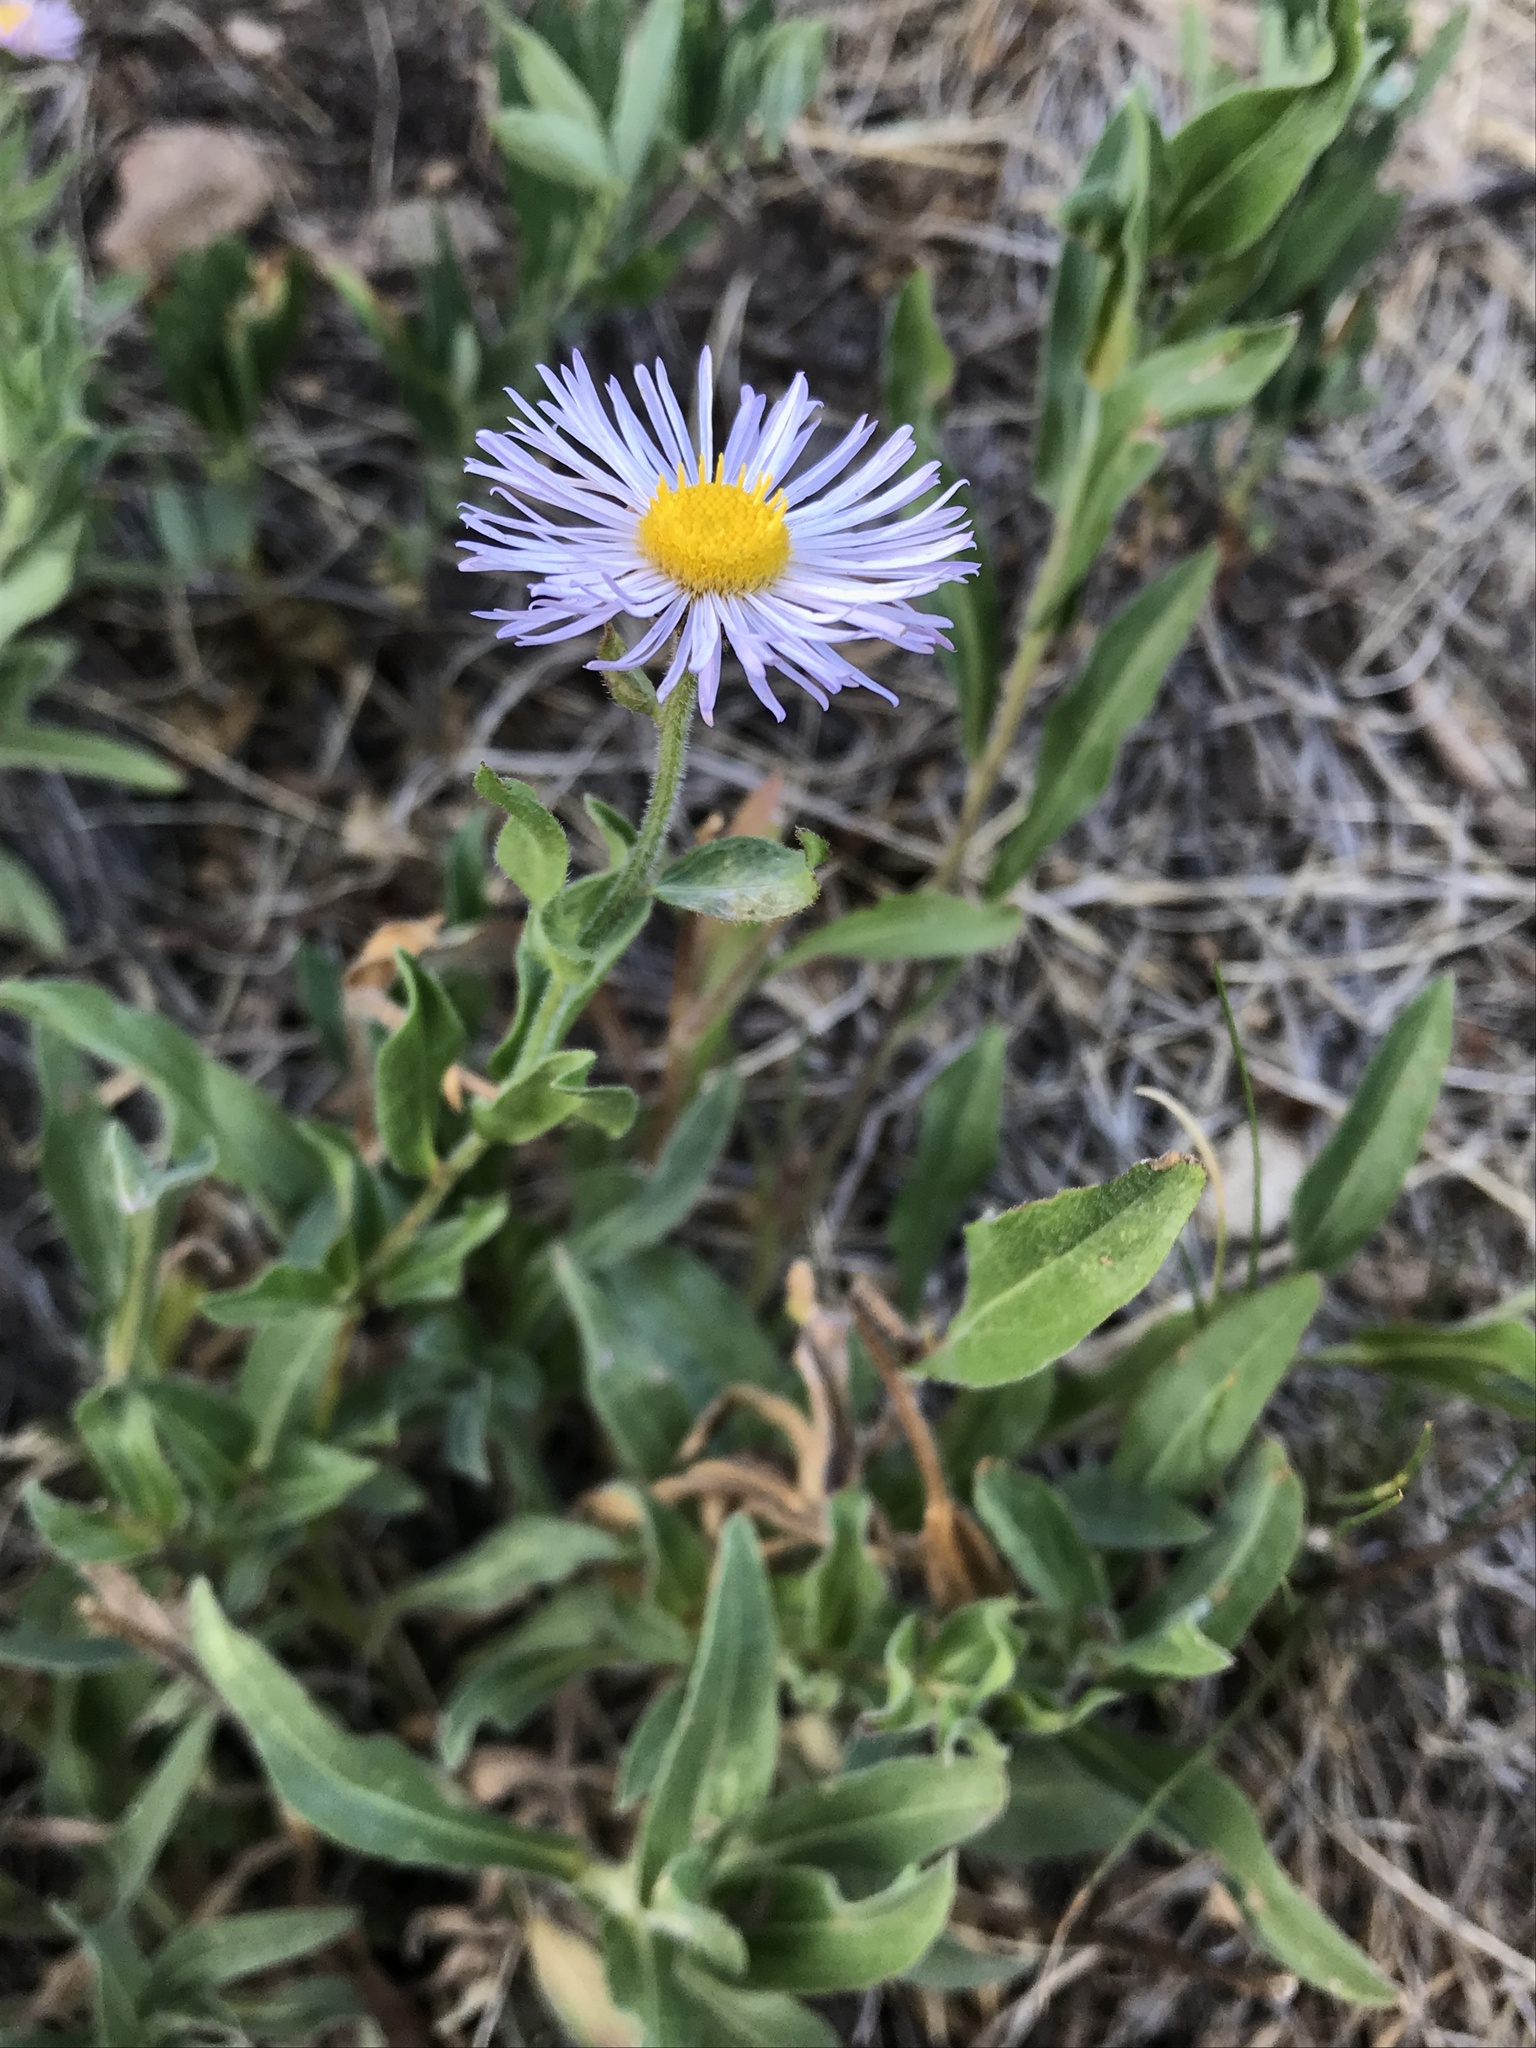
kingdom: Plantae
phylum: Tracheophyta
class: Magnoliopsida
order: Asterales
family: Asteraceae
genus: Erigeron
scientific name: Erigeron speciosus
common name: Aspen fleabane
